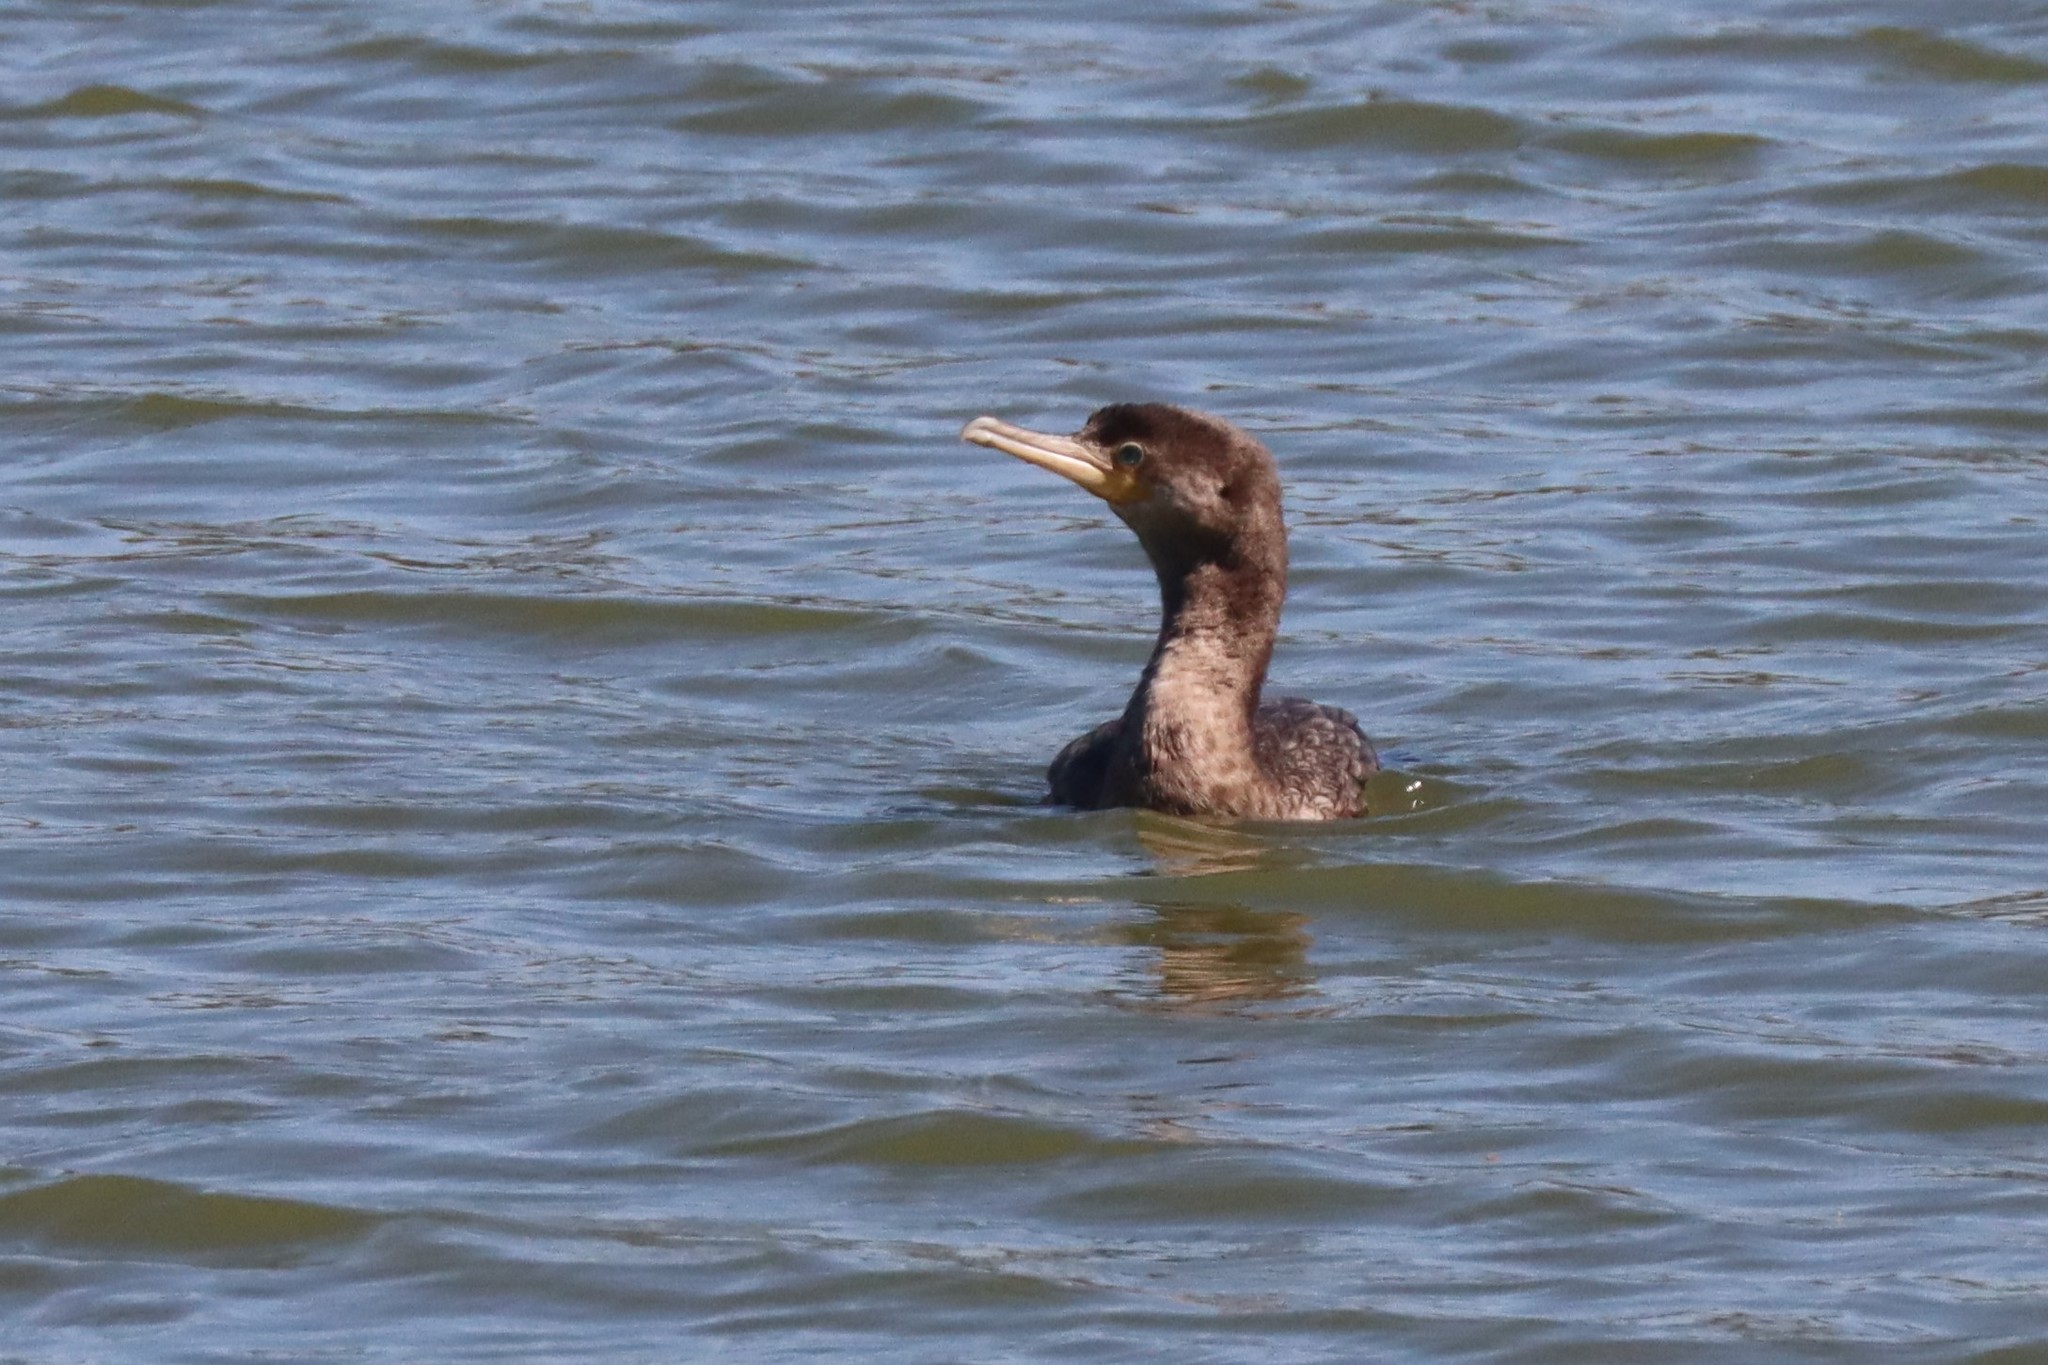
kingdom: Animalia
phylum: Chordata
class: Aves
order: Suliformes
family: Phalacrocoracidae
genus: Phalacrocorax
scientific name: Phalacrocorax brasilianus
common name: Neotropic cormorant
